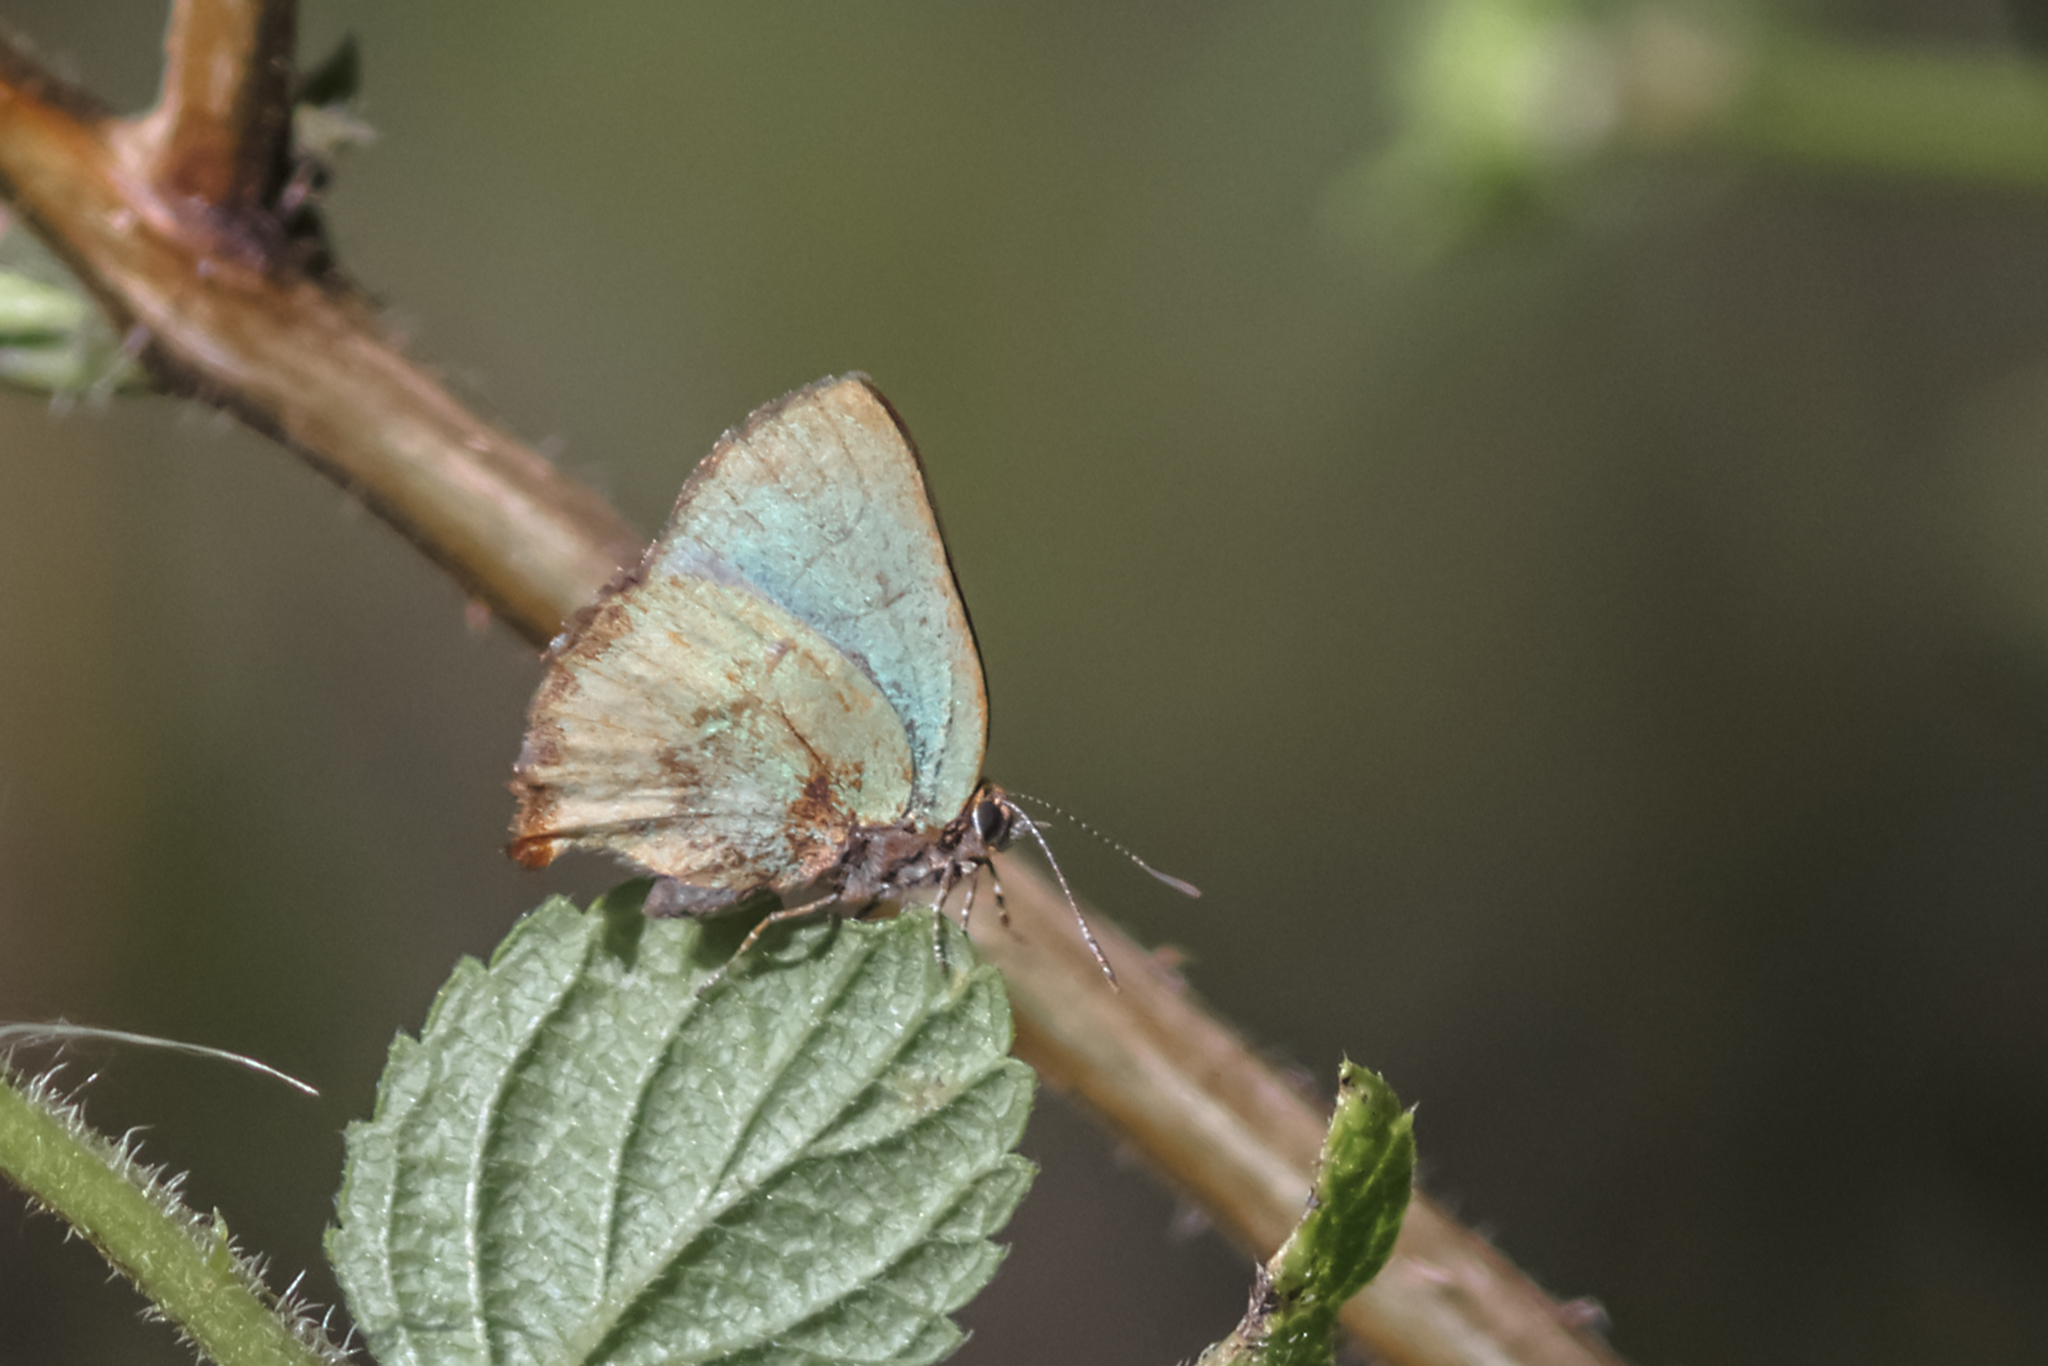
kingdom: Animalia
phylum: Arthropoda
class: Insecta
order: Lepidoptera
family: Lycaenidae
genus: Cyanophrys
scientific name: Cyanophrys
